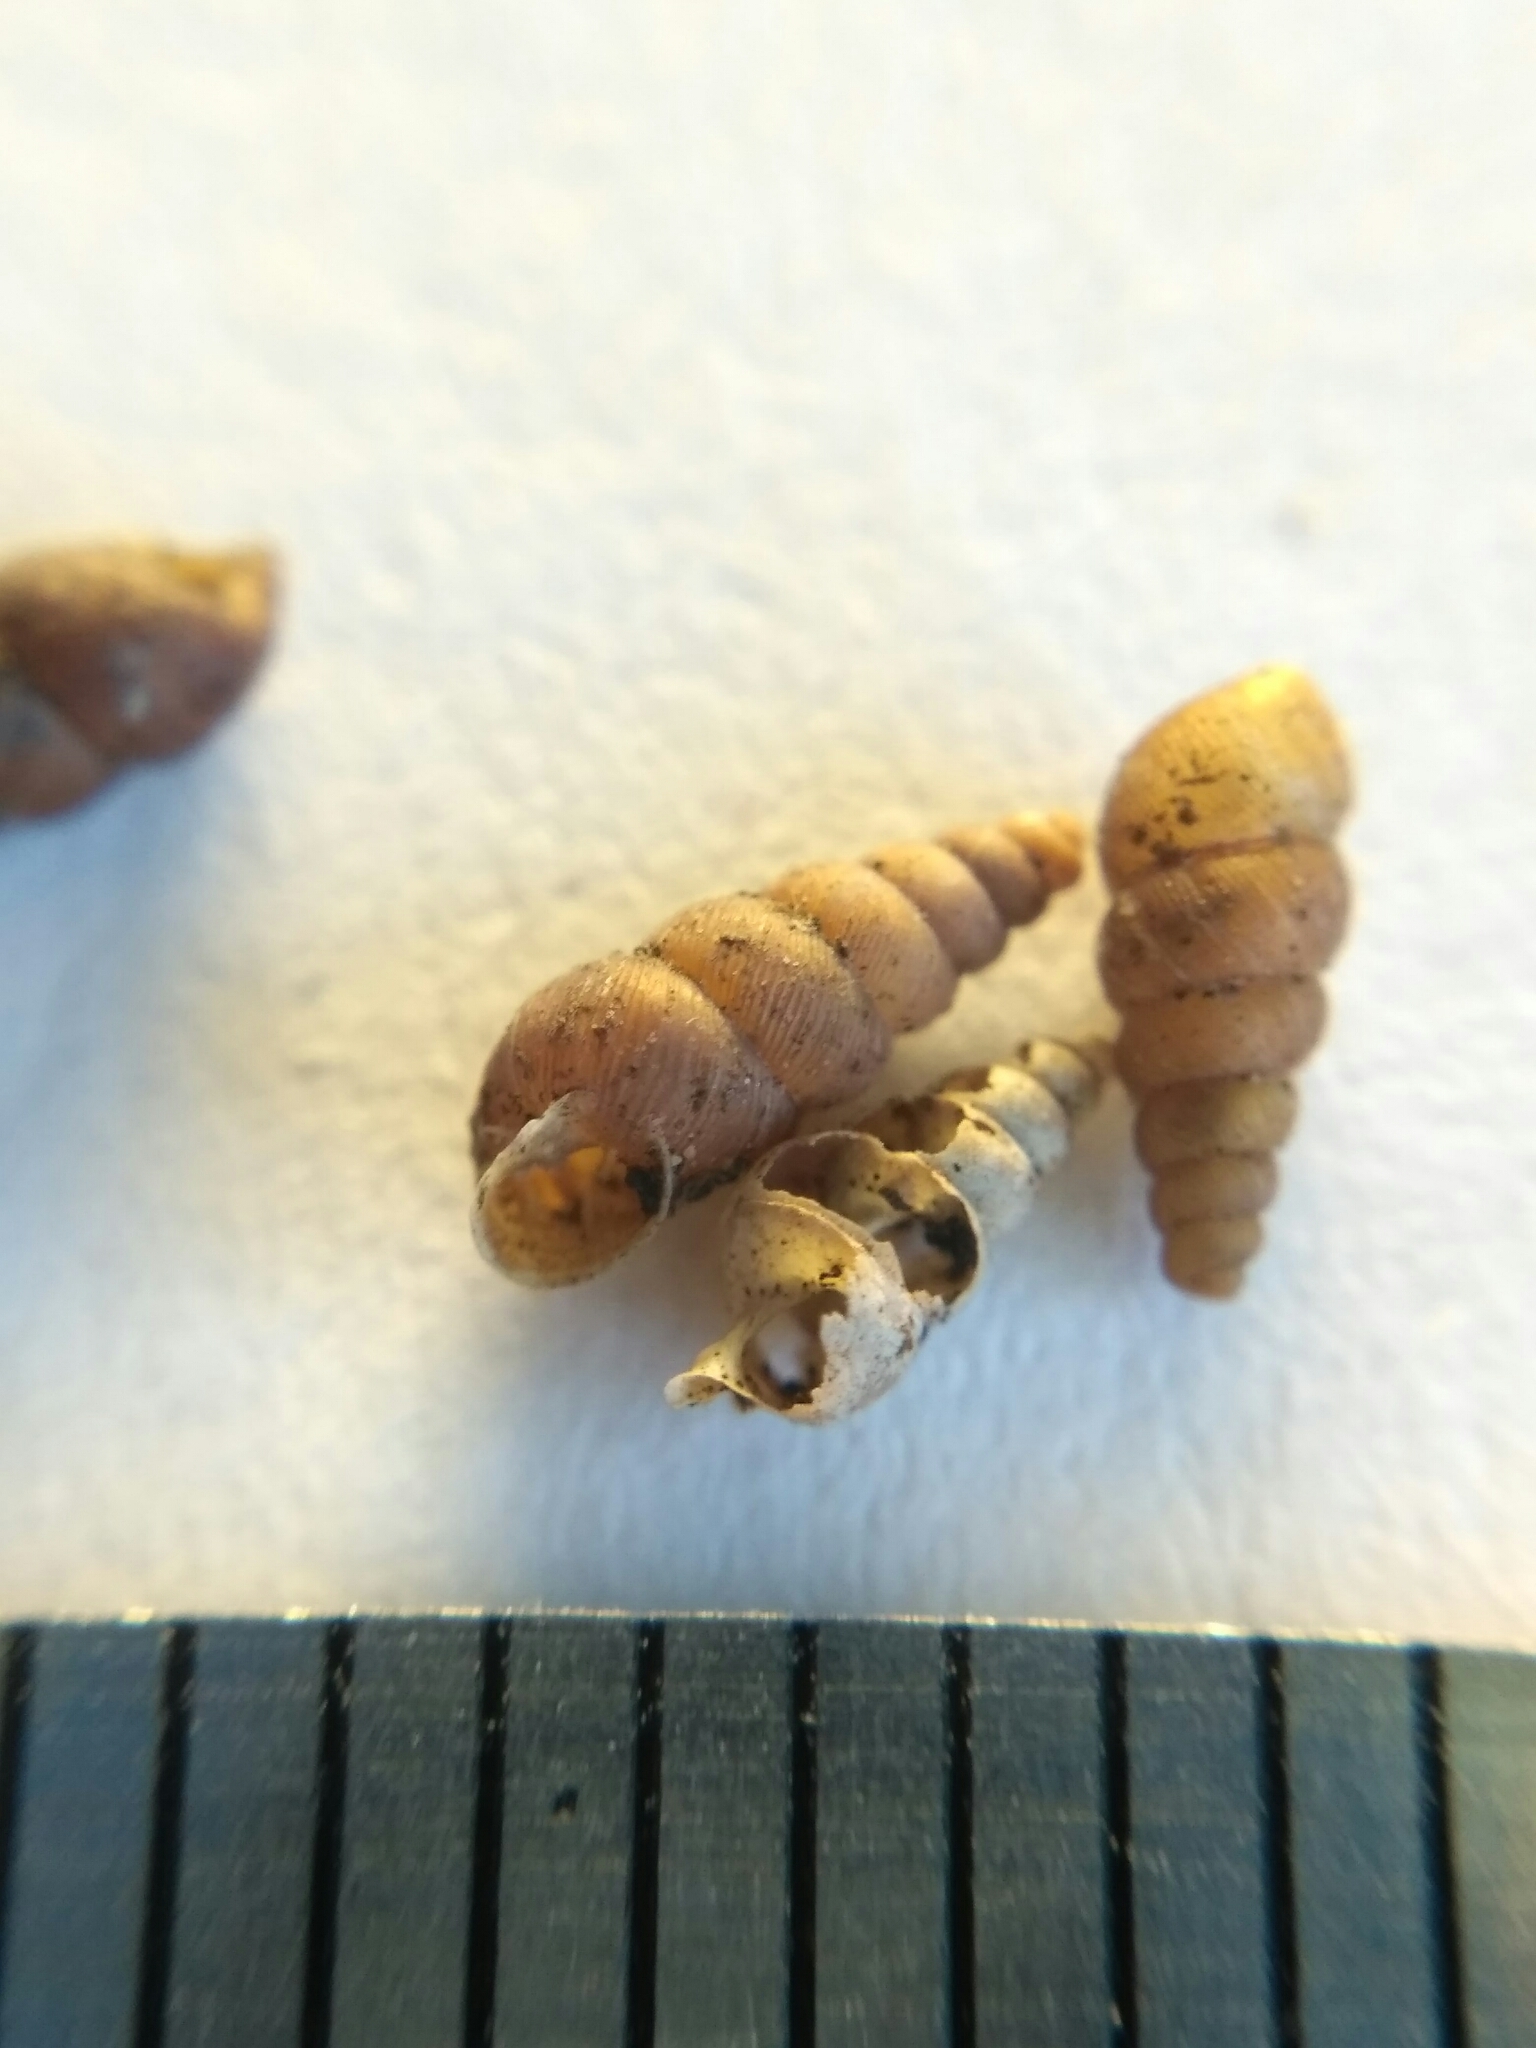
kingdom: Animalia
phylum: Mollusca
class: Gastropoda
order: Stylommatophora
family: Chondrinidae
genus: Rupestrella
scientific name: Rupestrella rhodia
